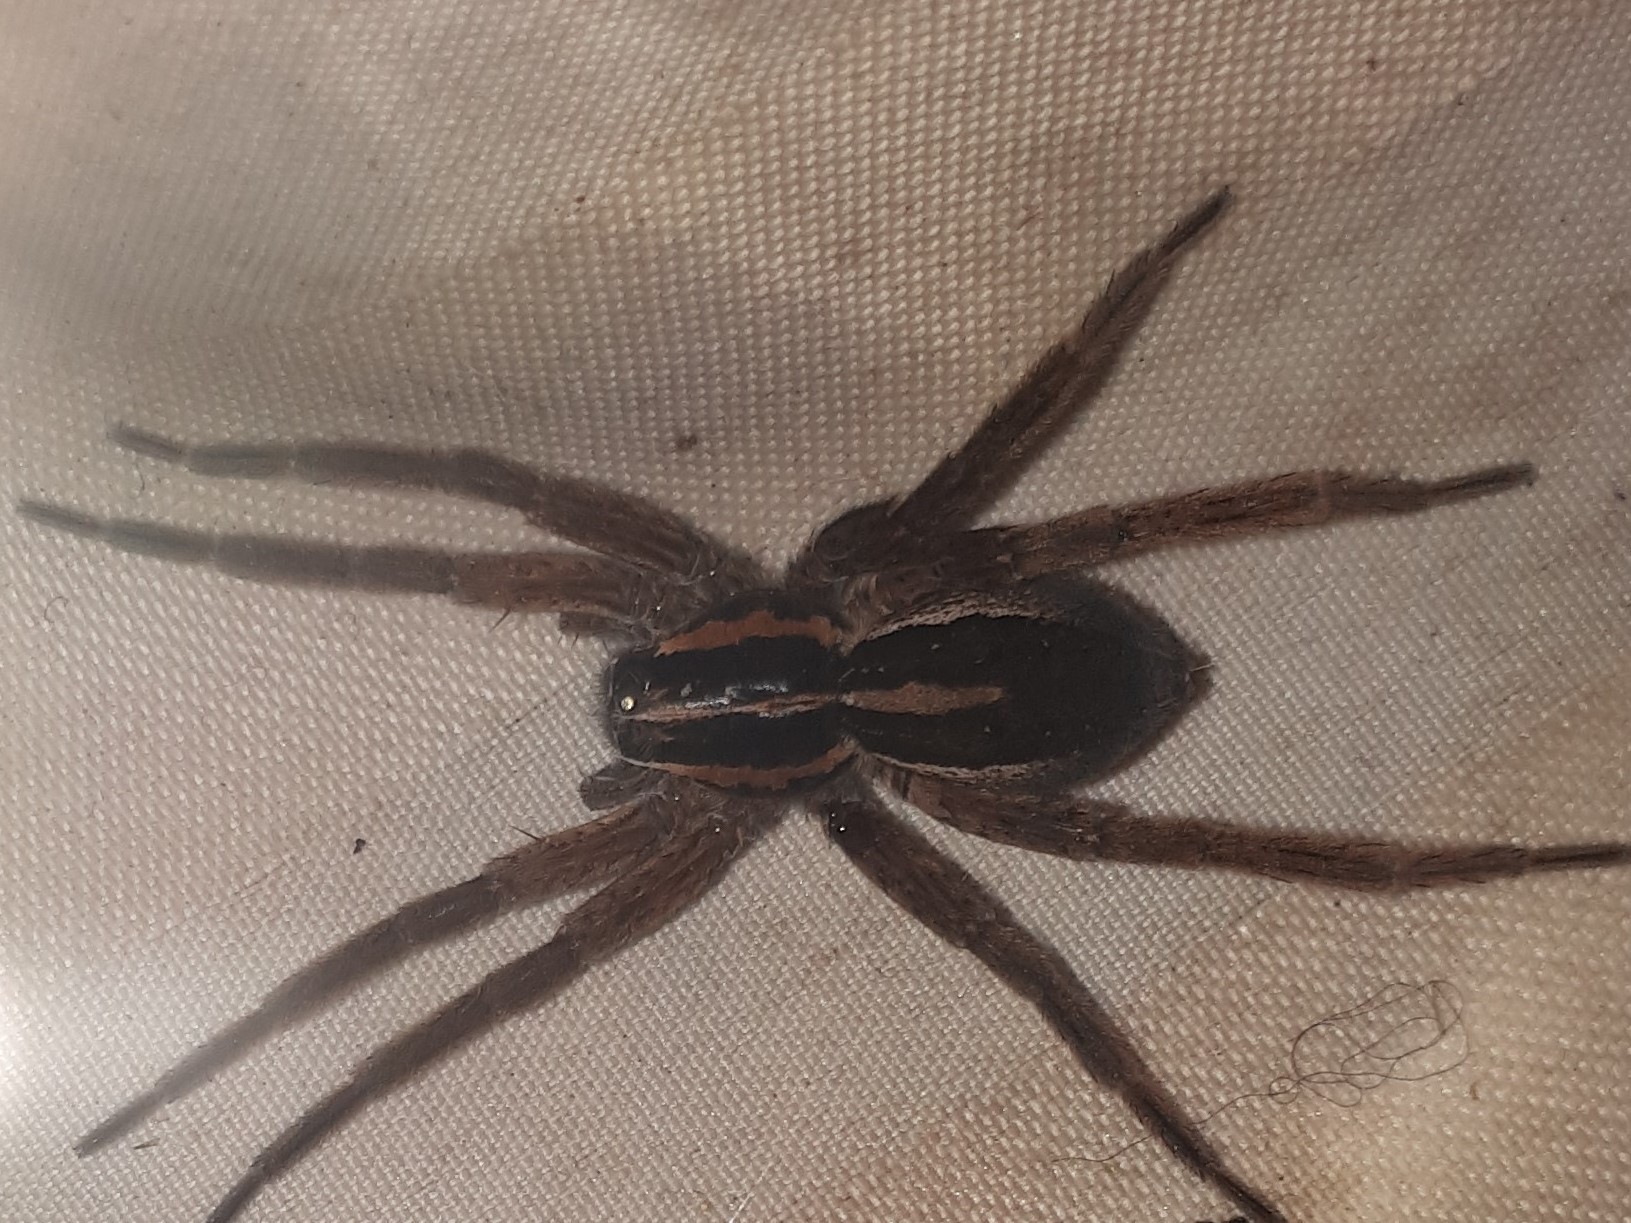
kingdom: Animalia
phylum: Arthropoda
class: Arachnida
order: Araneae
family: Pisauridae
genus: Dolomedes
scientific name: Dolomedes minor
